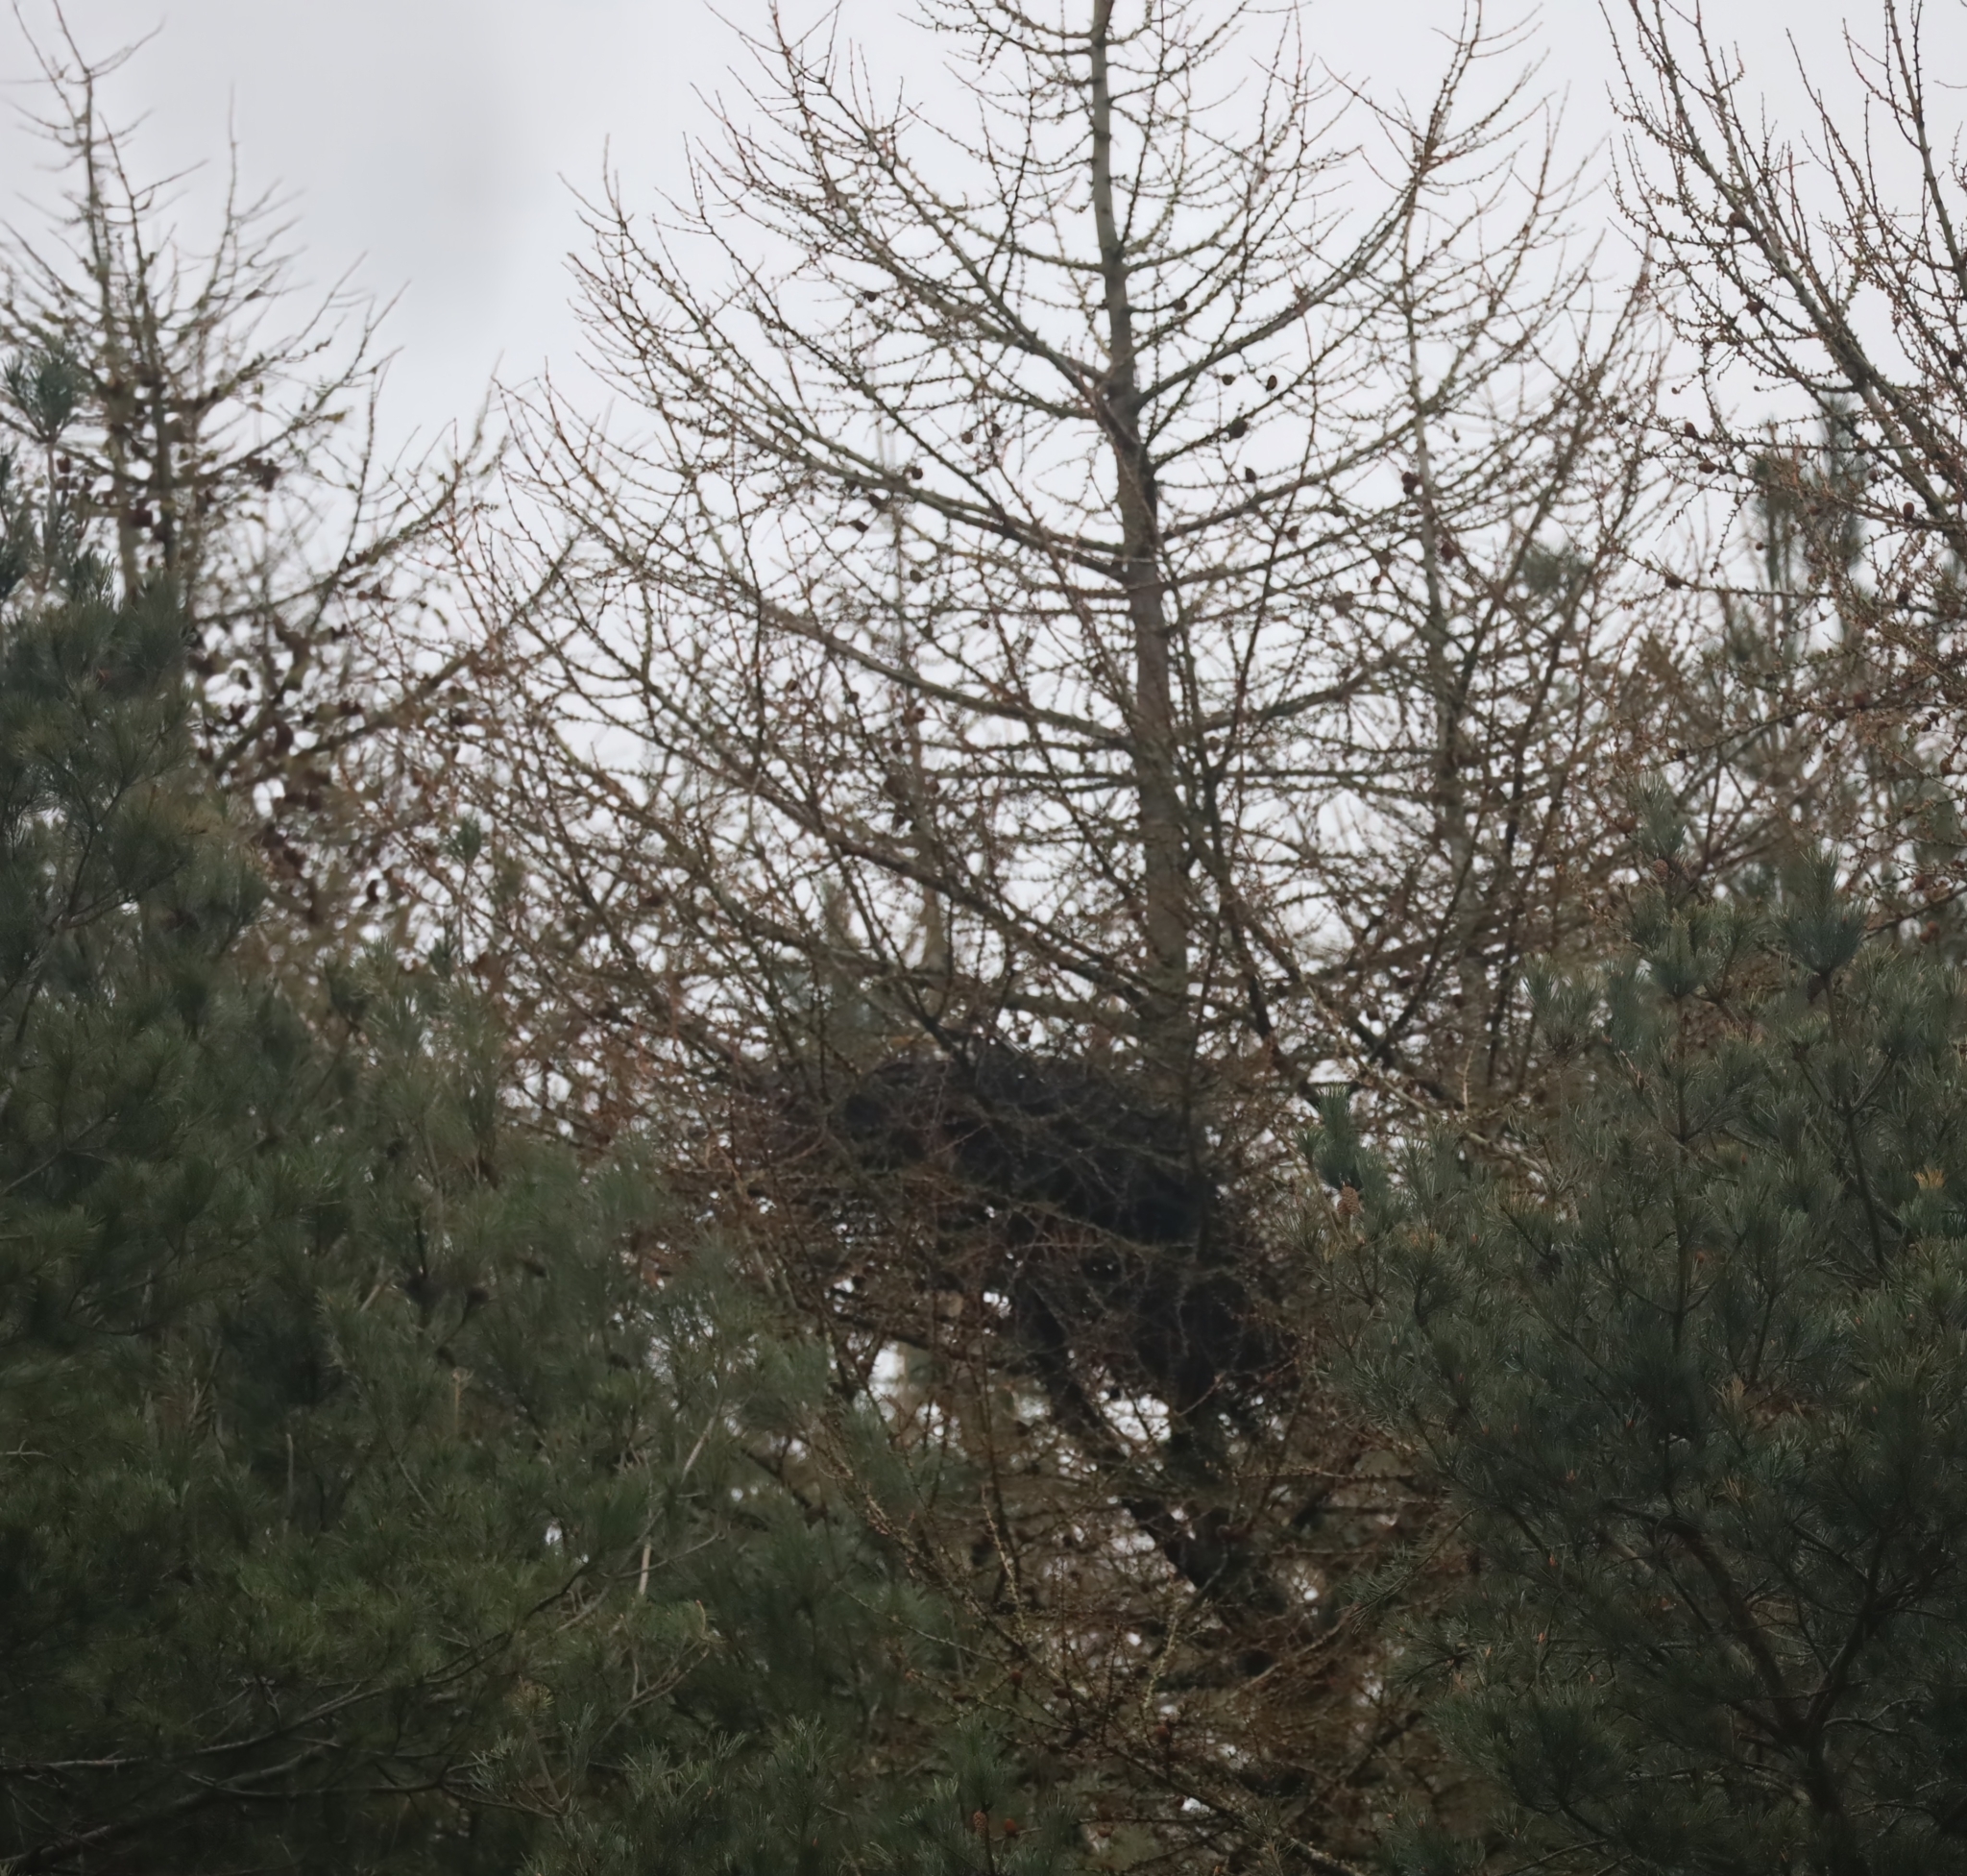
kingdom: Animalia
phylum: Chordata
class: Aves
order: Pelecaniformes
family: Ardeidae
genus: Ardea
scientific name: Ardea cinerea
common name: Grey heron
